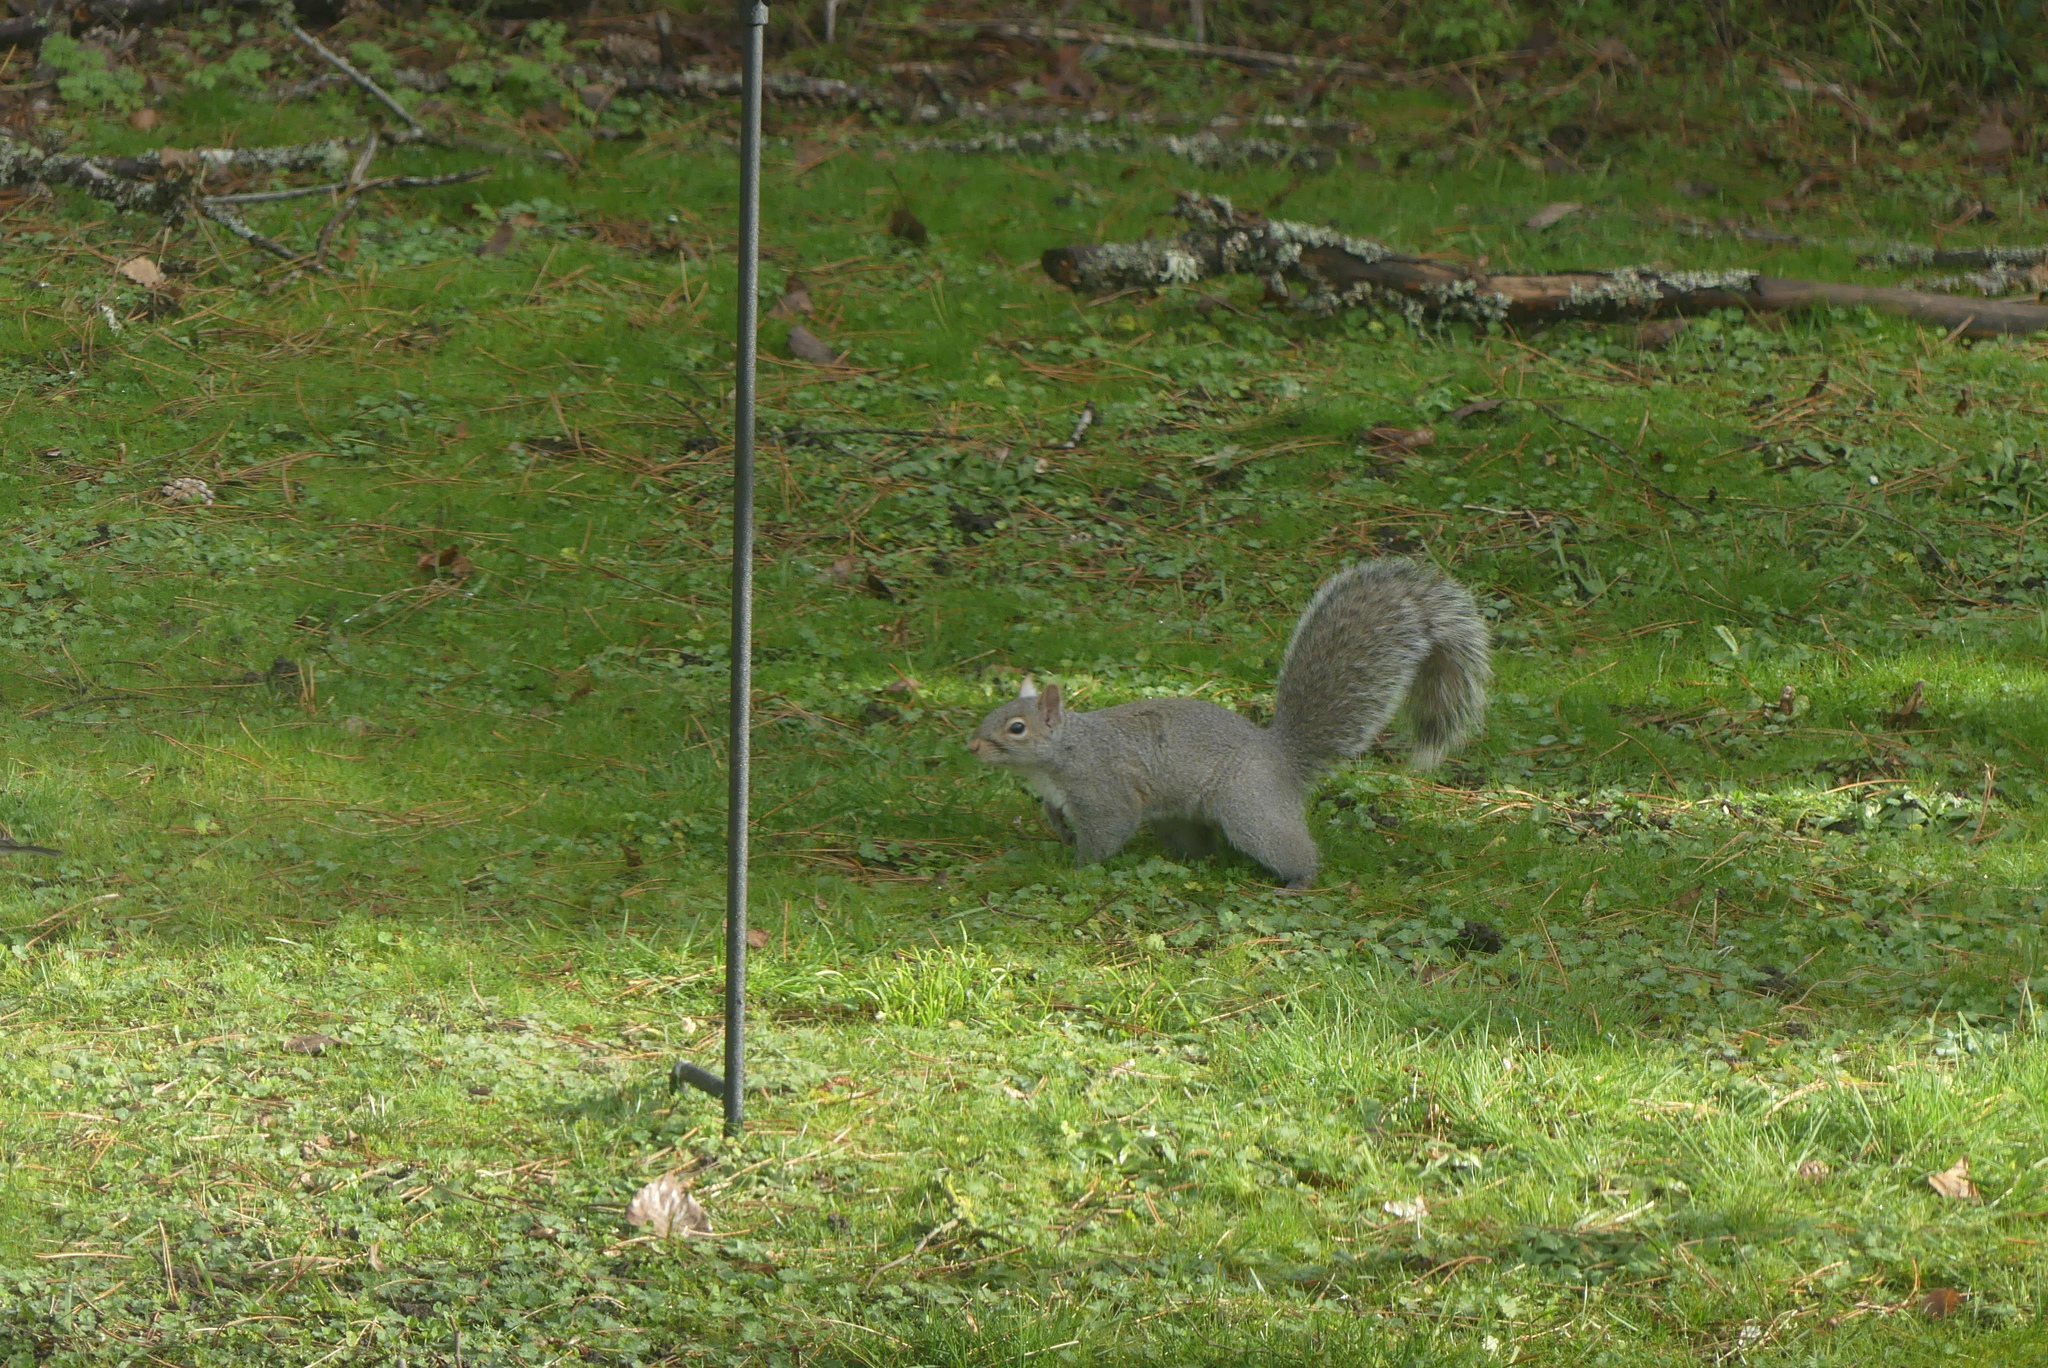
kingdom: Animalia
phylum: Chordata
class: Mammalia
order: Rodentia
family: Sciuridae
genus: Sciurus
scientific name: Sciurus carolinensis
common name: Eastern gray squirrel
